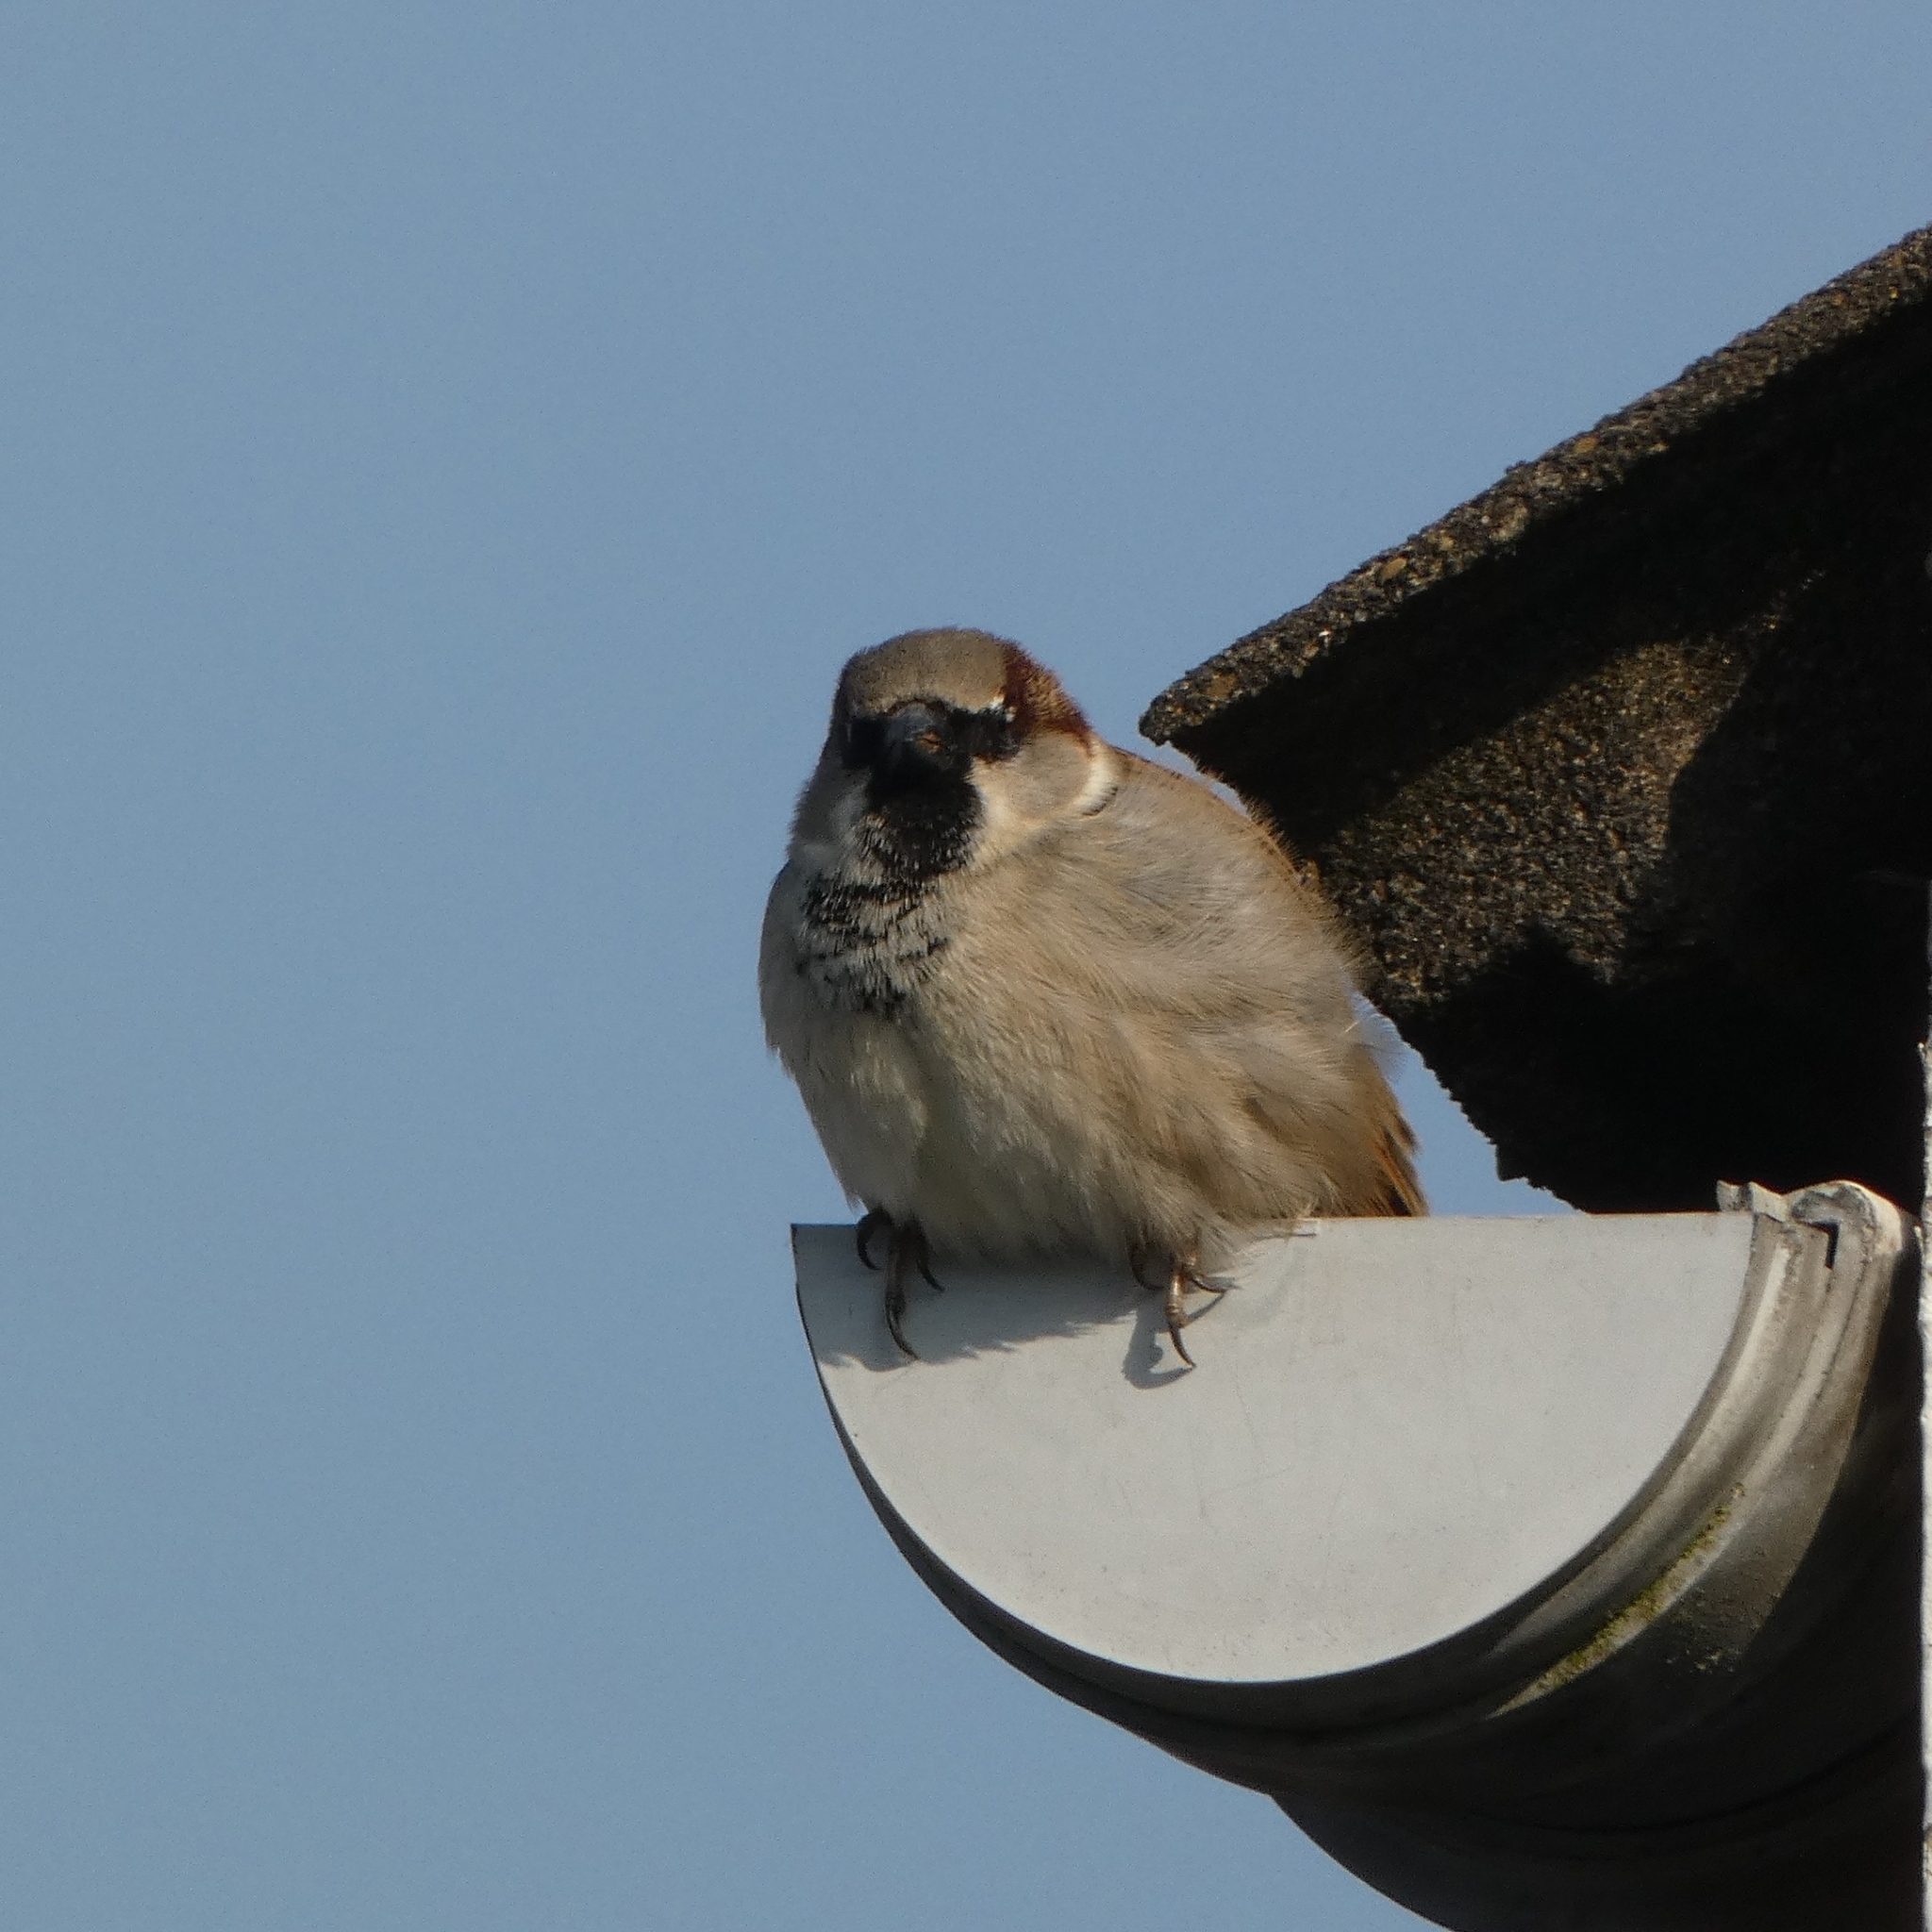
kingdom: Animalia
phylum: Chordata
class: Aves
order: Passeriformes
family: Passeridae
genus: Passer
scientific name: Passer domesticus
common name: House sparrow
